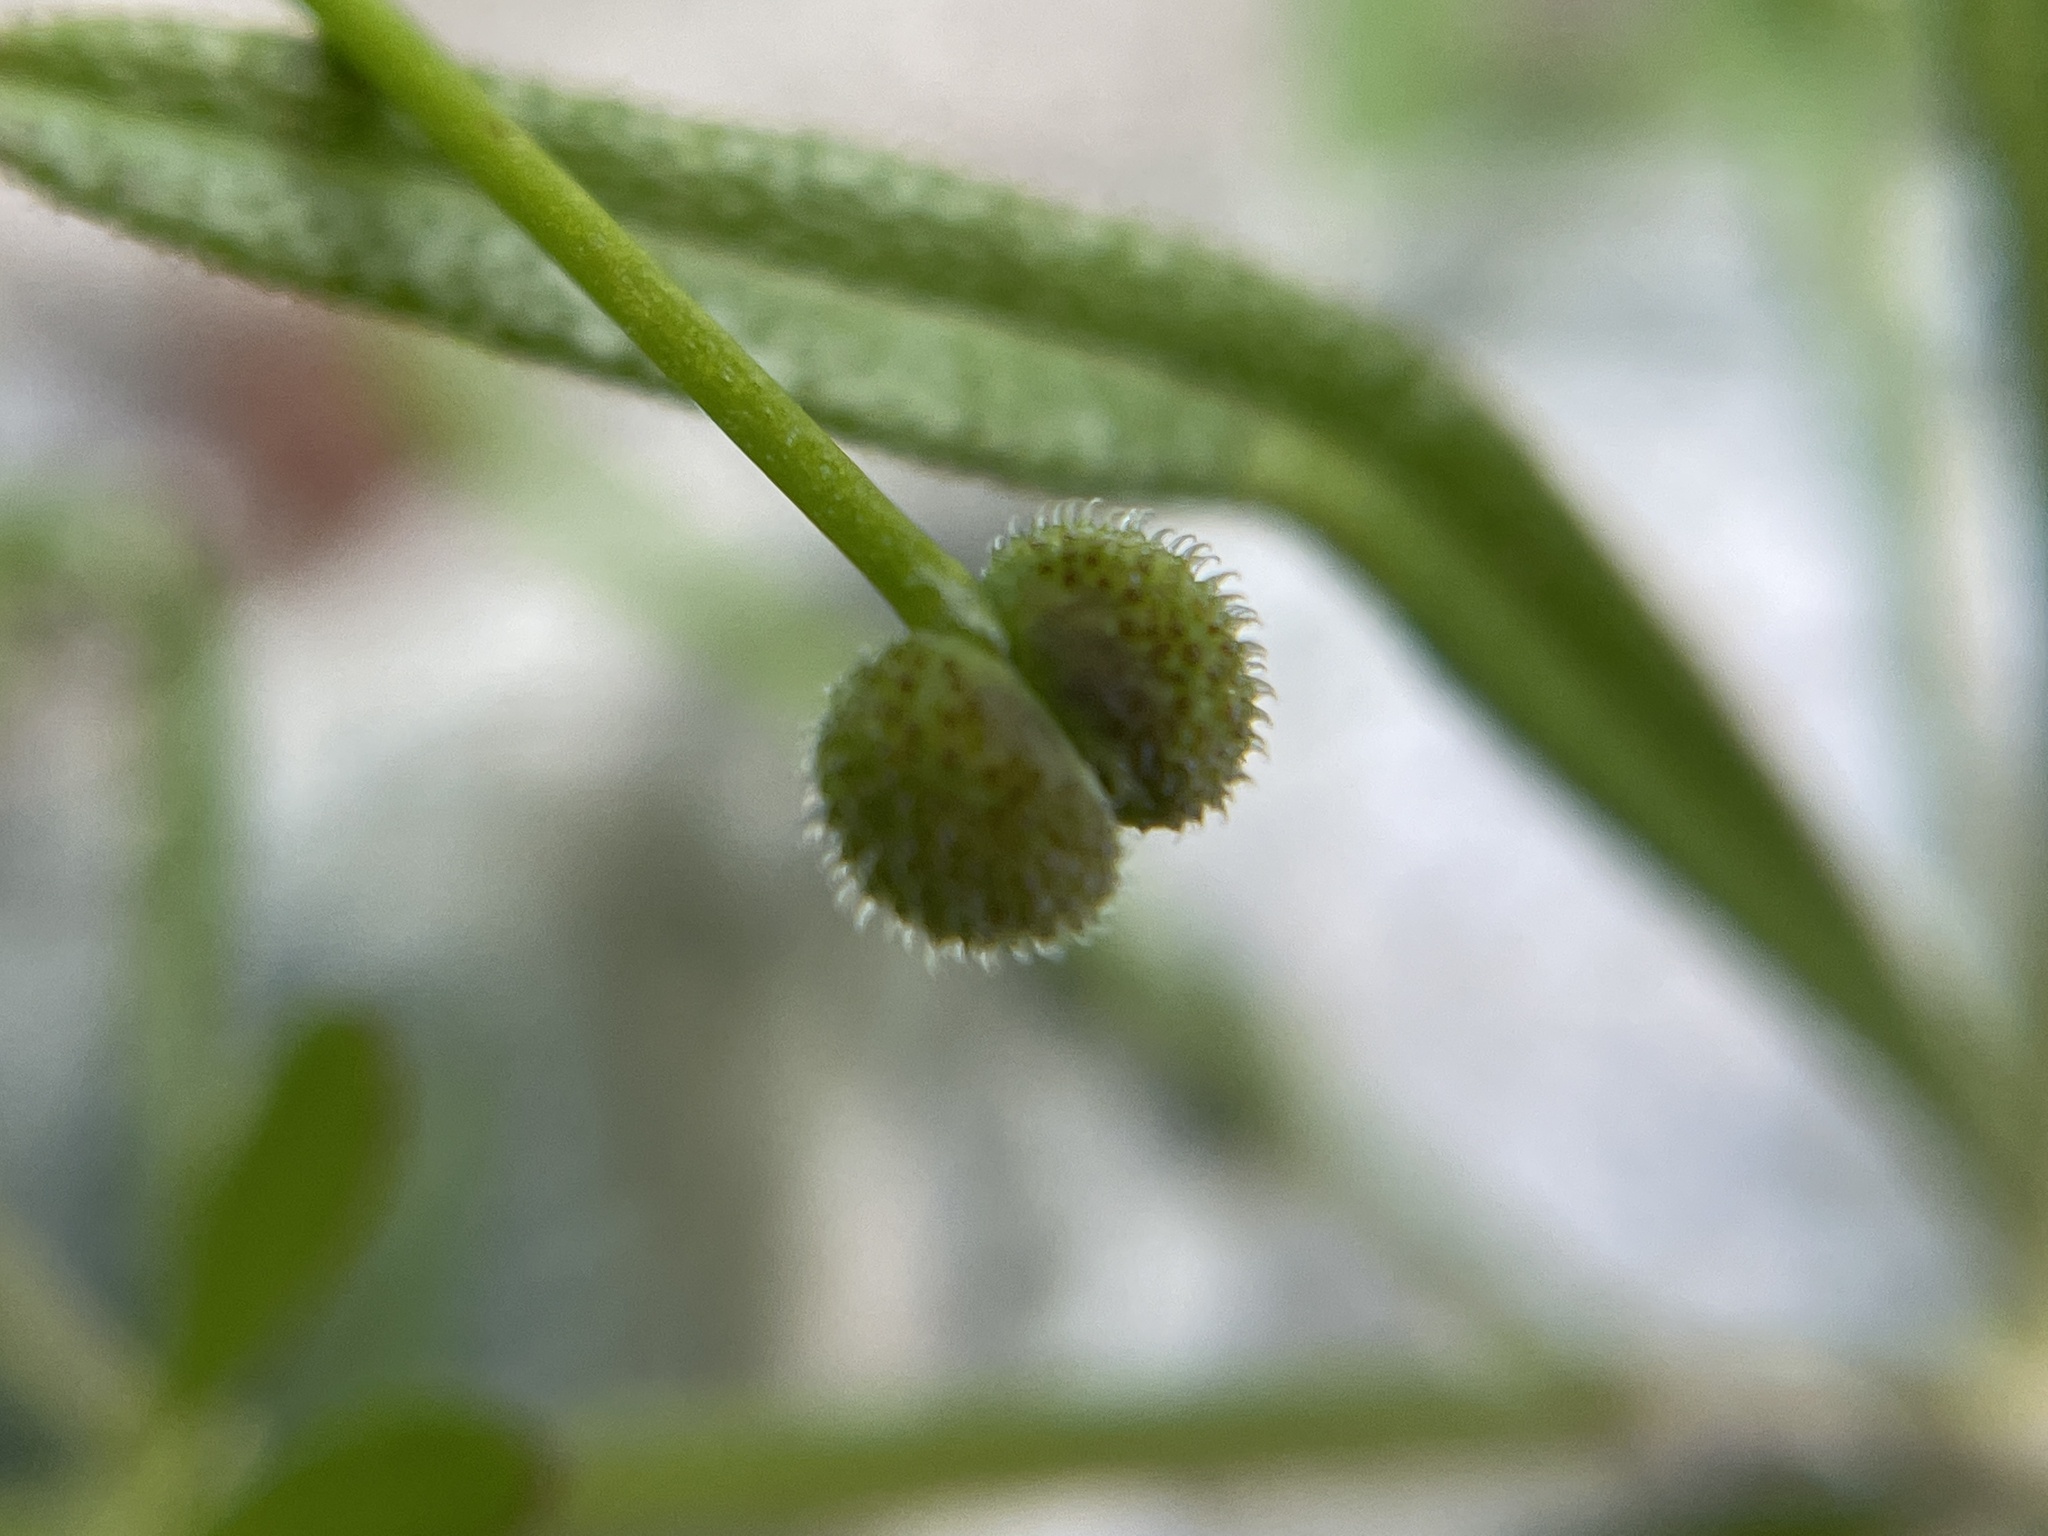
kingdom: Plantae
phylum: Tracheophyta
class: Magnoliopsida
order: Gentianales
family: Rubiaceae
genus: Galium
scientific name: Galium aparine
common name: Cleavers
